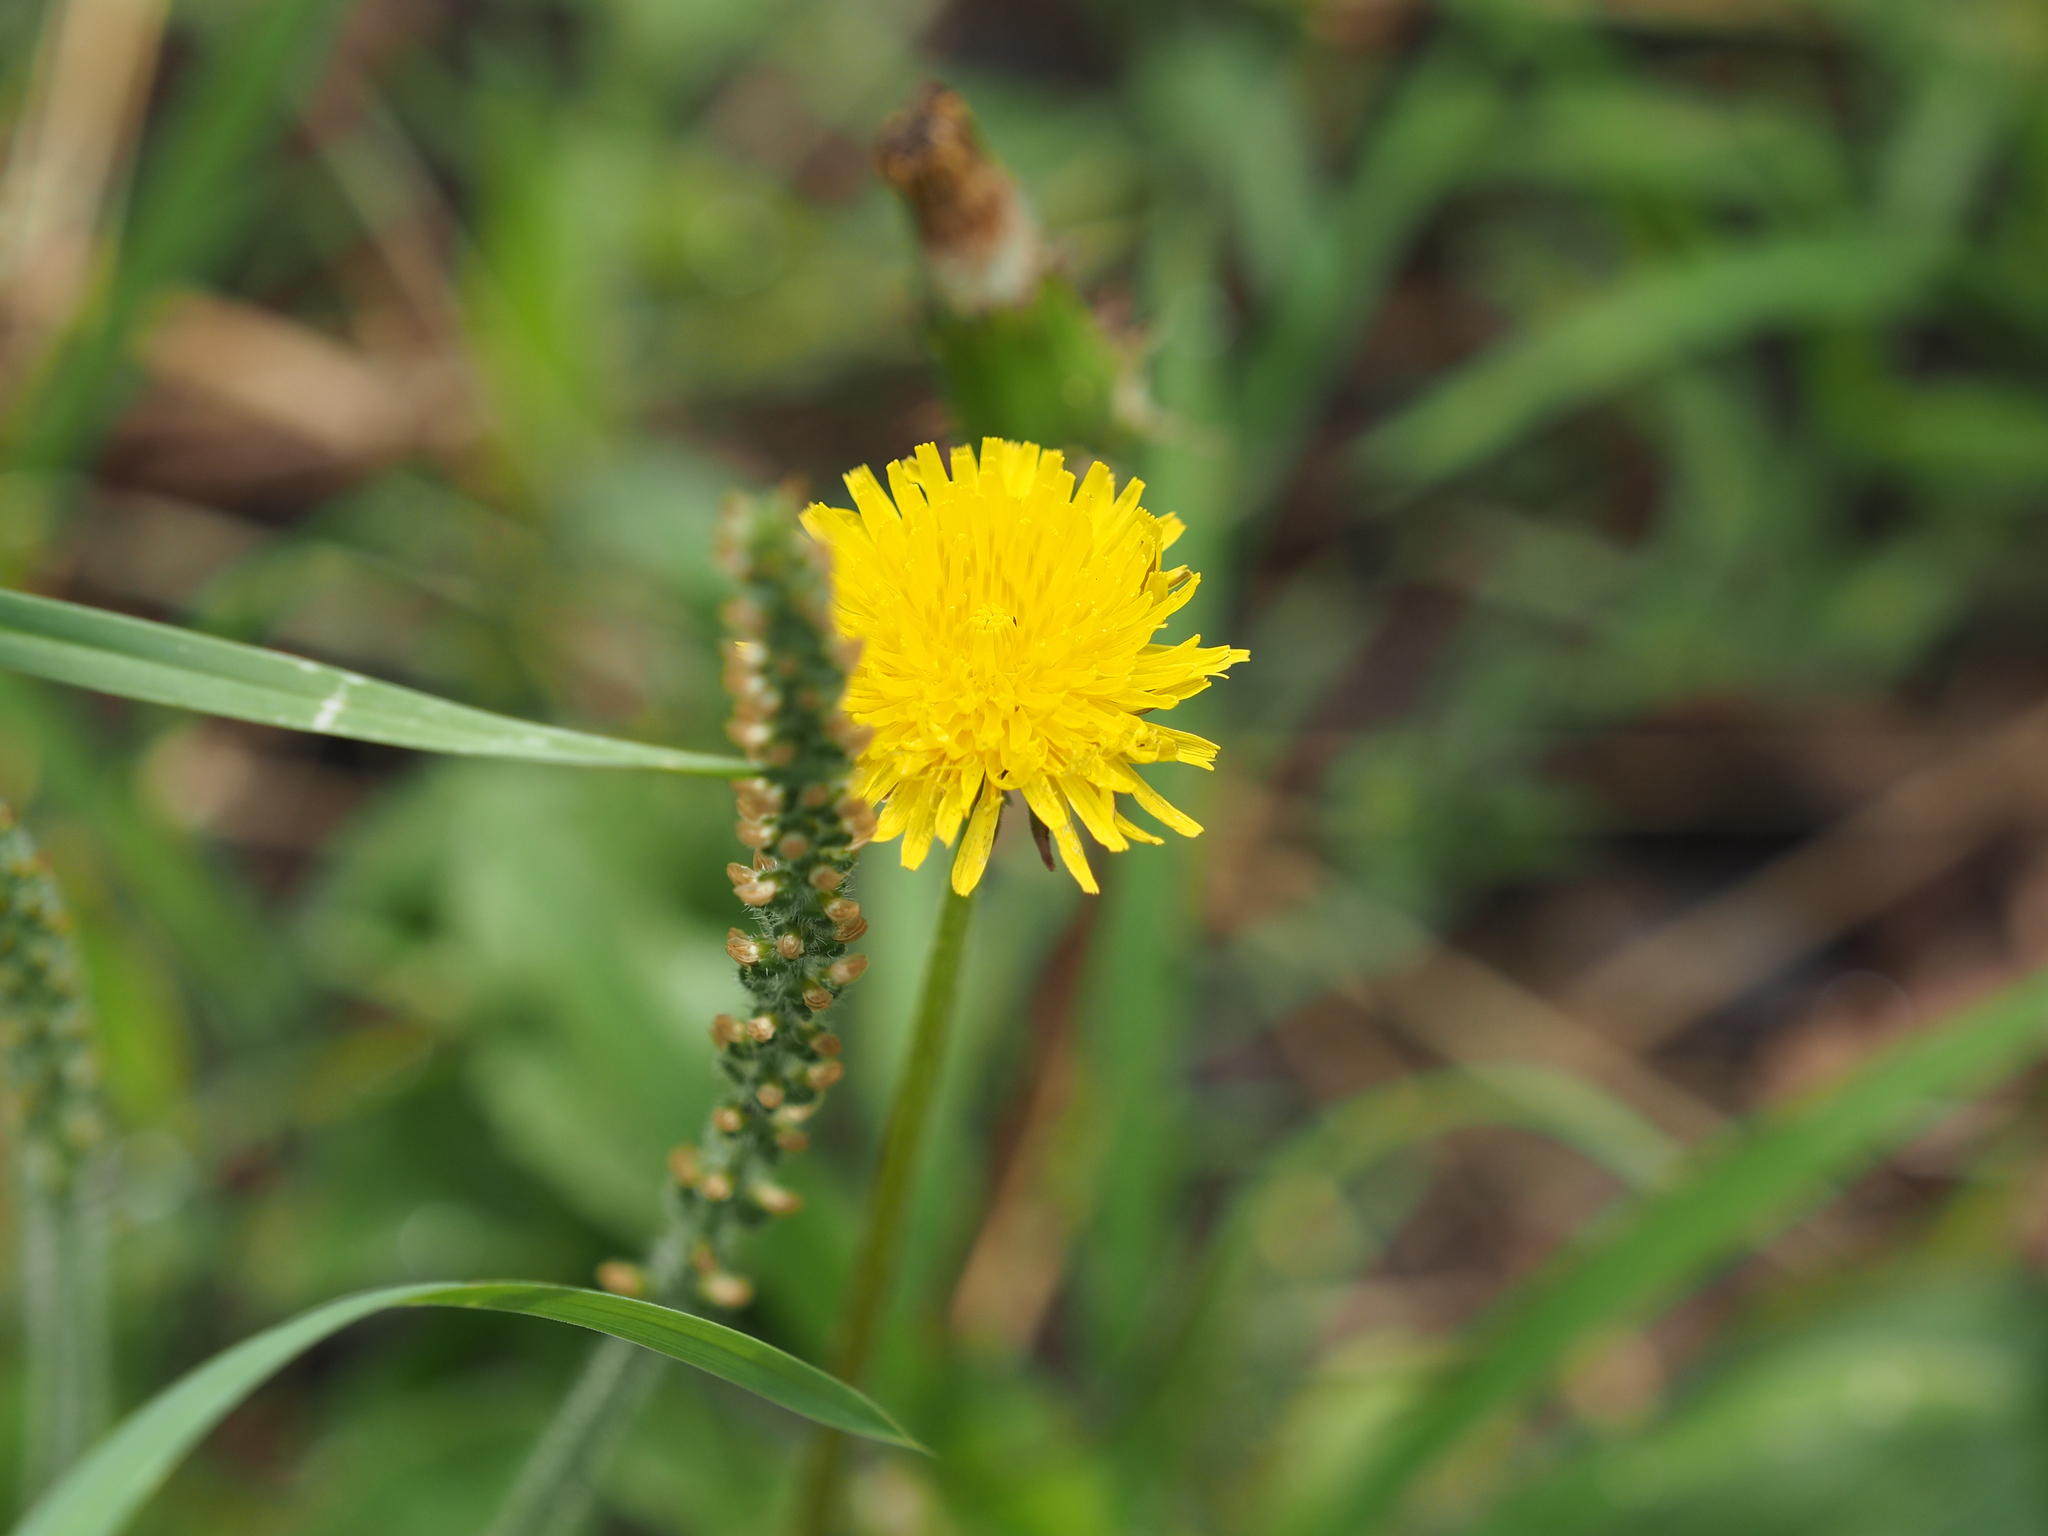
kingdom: Plantae
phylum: Tracheophyta
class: Magnoliopsida
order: Asterales
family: Asteraceae
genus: Taraxacum
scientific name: Taraxacum officinale
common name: Common dandelion
